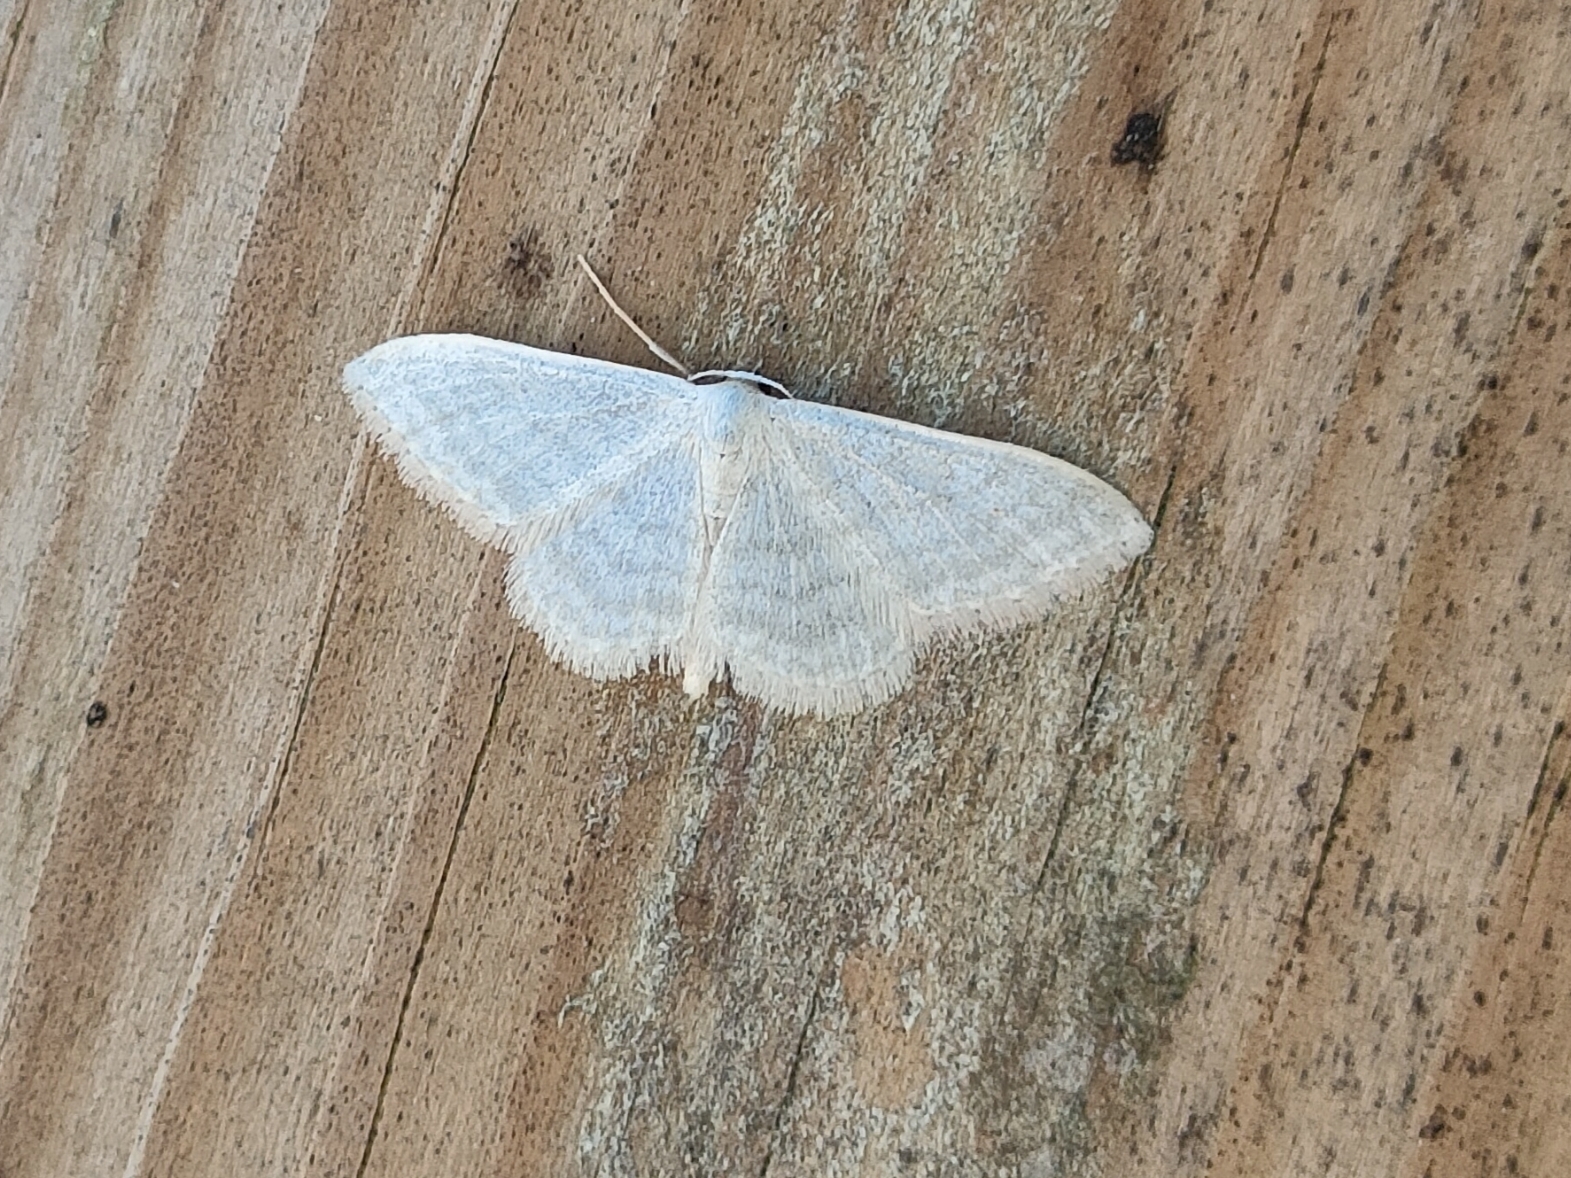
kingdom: Animalia
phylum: Arthropoda
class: Insecta
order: Lepidoptera
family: Geometridae
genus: Idaea
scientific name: Idaea subsericeata
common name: Satin wave
